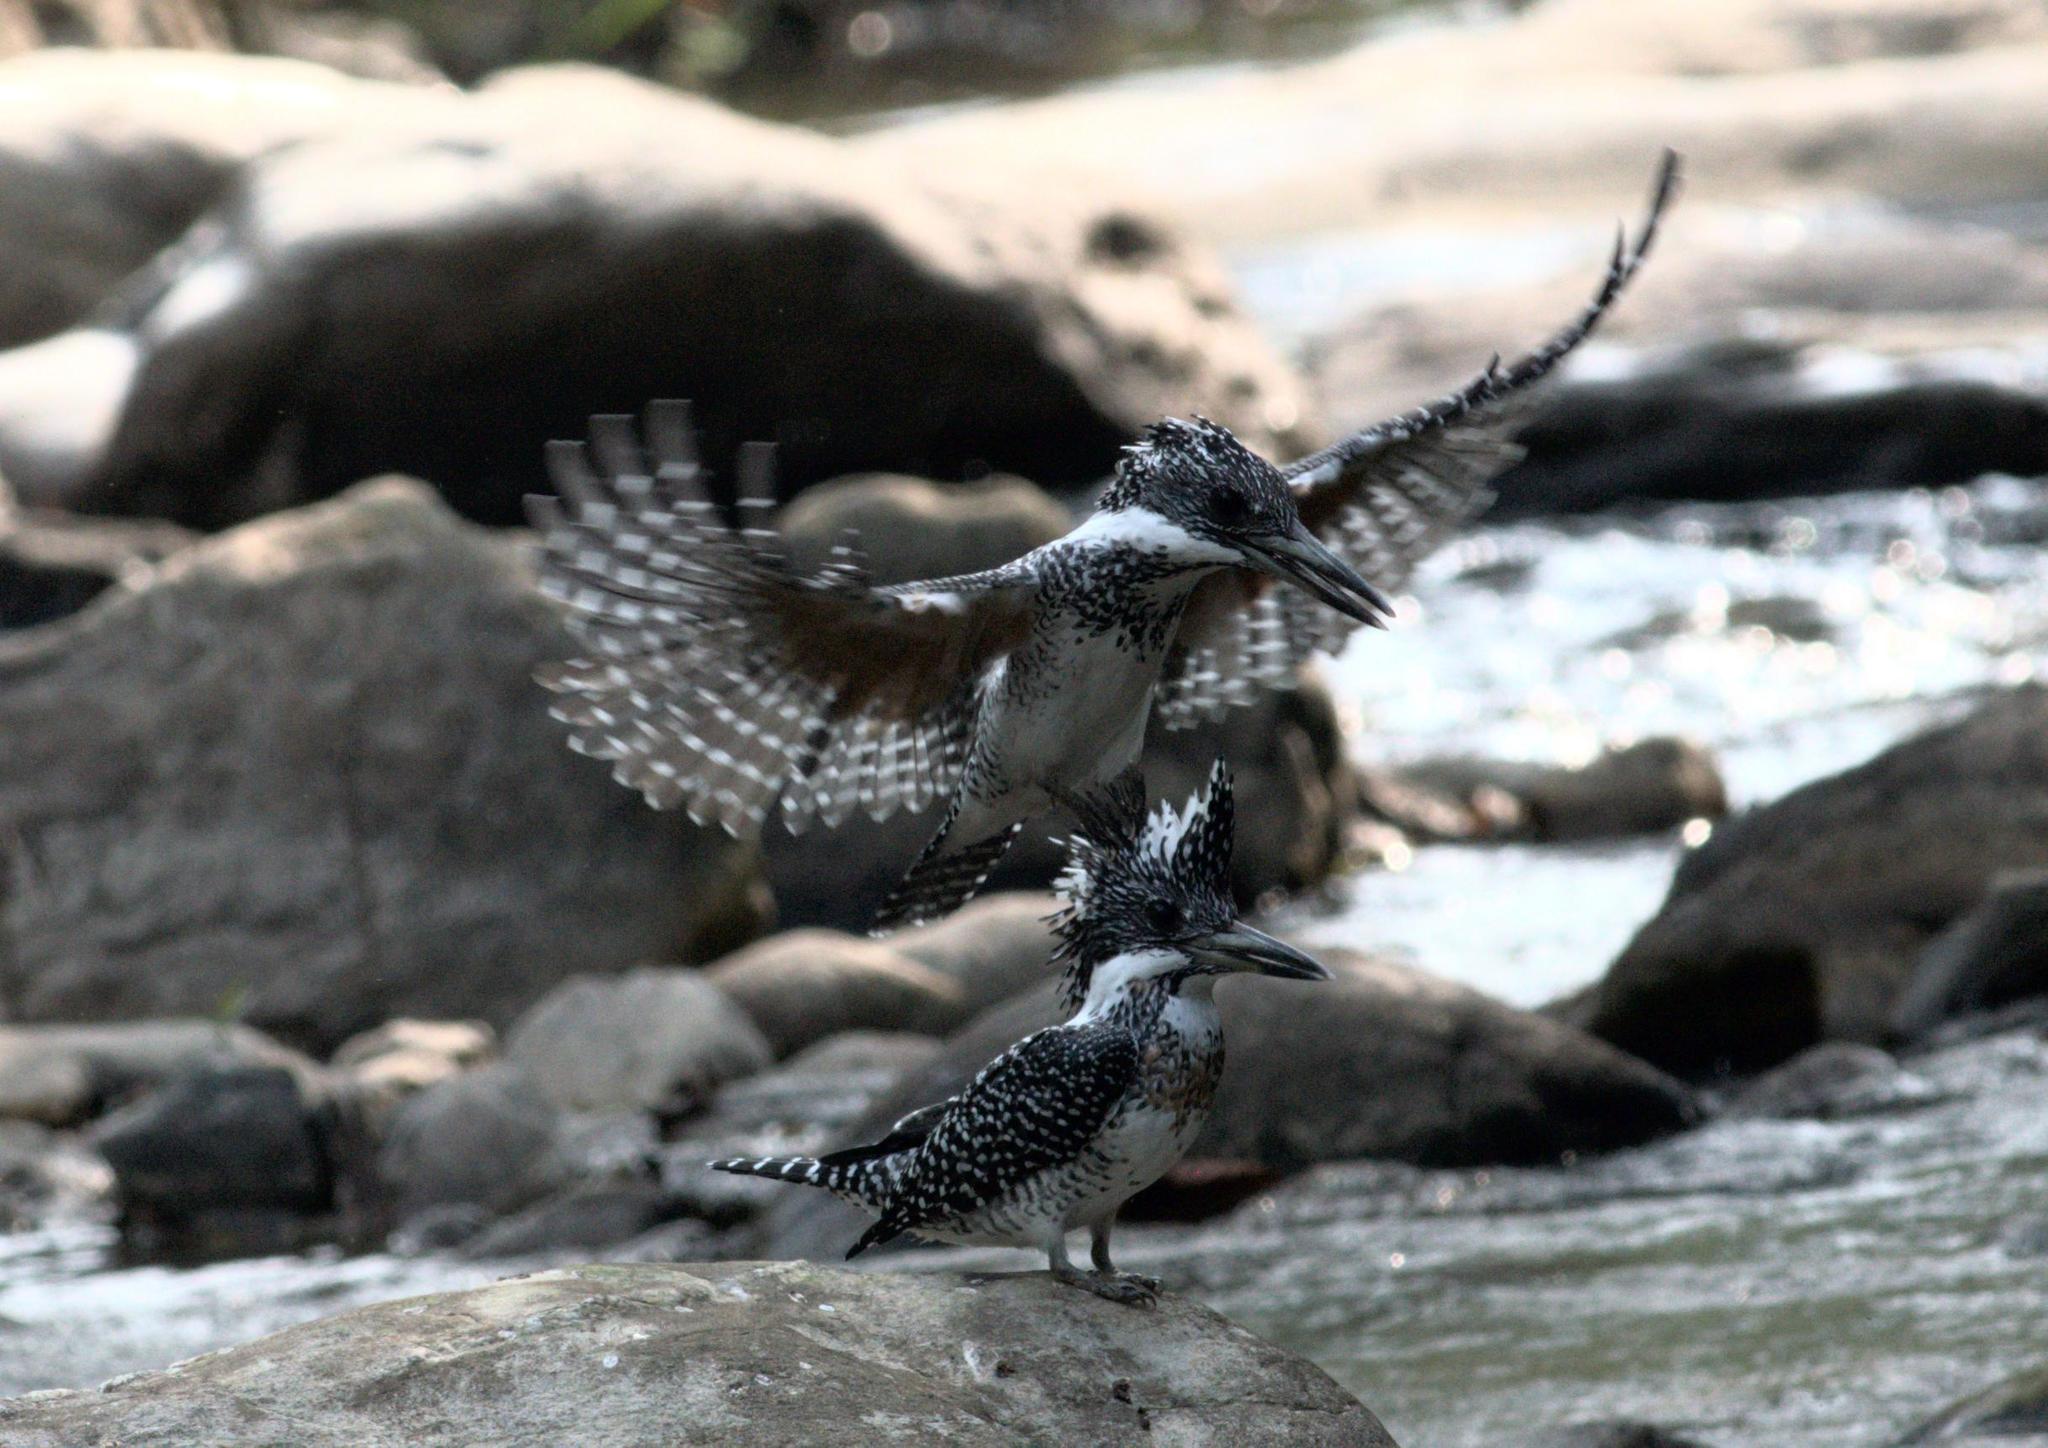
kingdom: Animalia
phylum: Chordata
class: Aves
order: Coraciiformes
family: Alcedinidae
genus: Megaceryle
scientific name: Megaceryle lugubris
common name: Crested kingfisher
